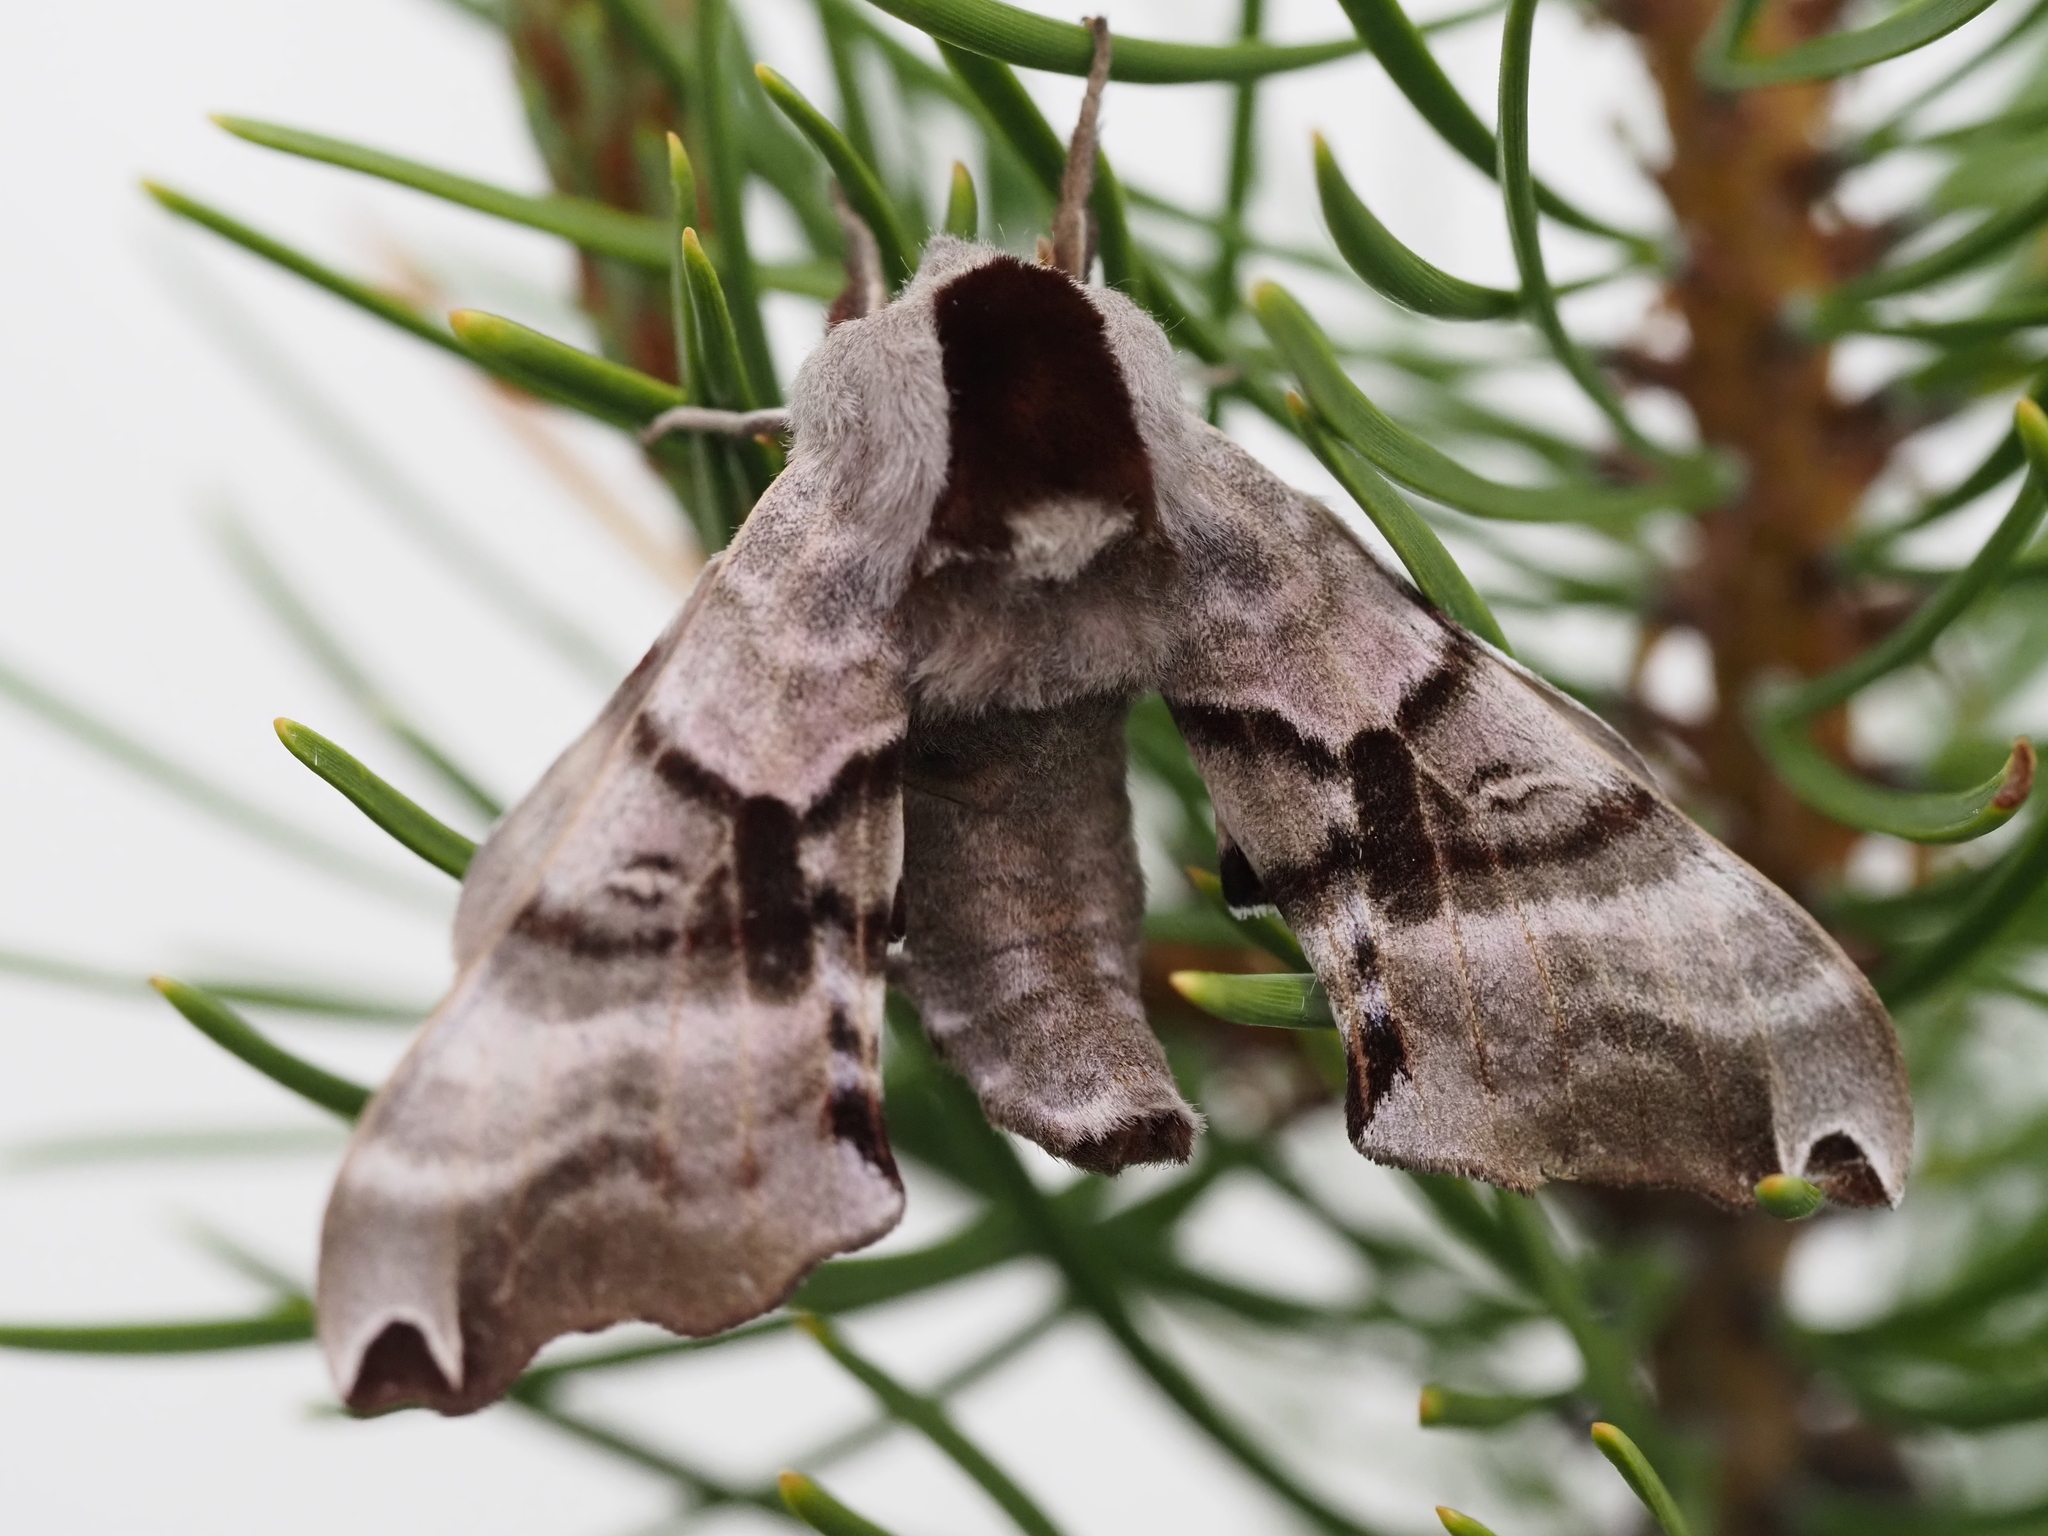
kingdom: Animalia
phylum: Arthropoda
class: Insecta
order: Lepidoptera
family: Sphingidae
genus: Smerinthus
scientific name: Smerinthus jamaicensis
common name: Twin spotted sphinx
